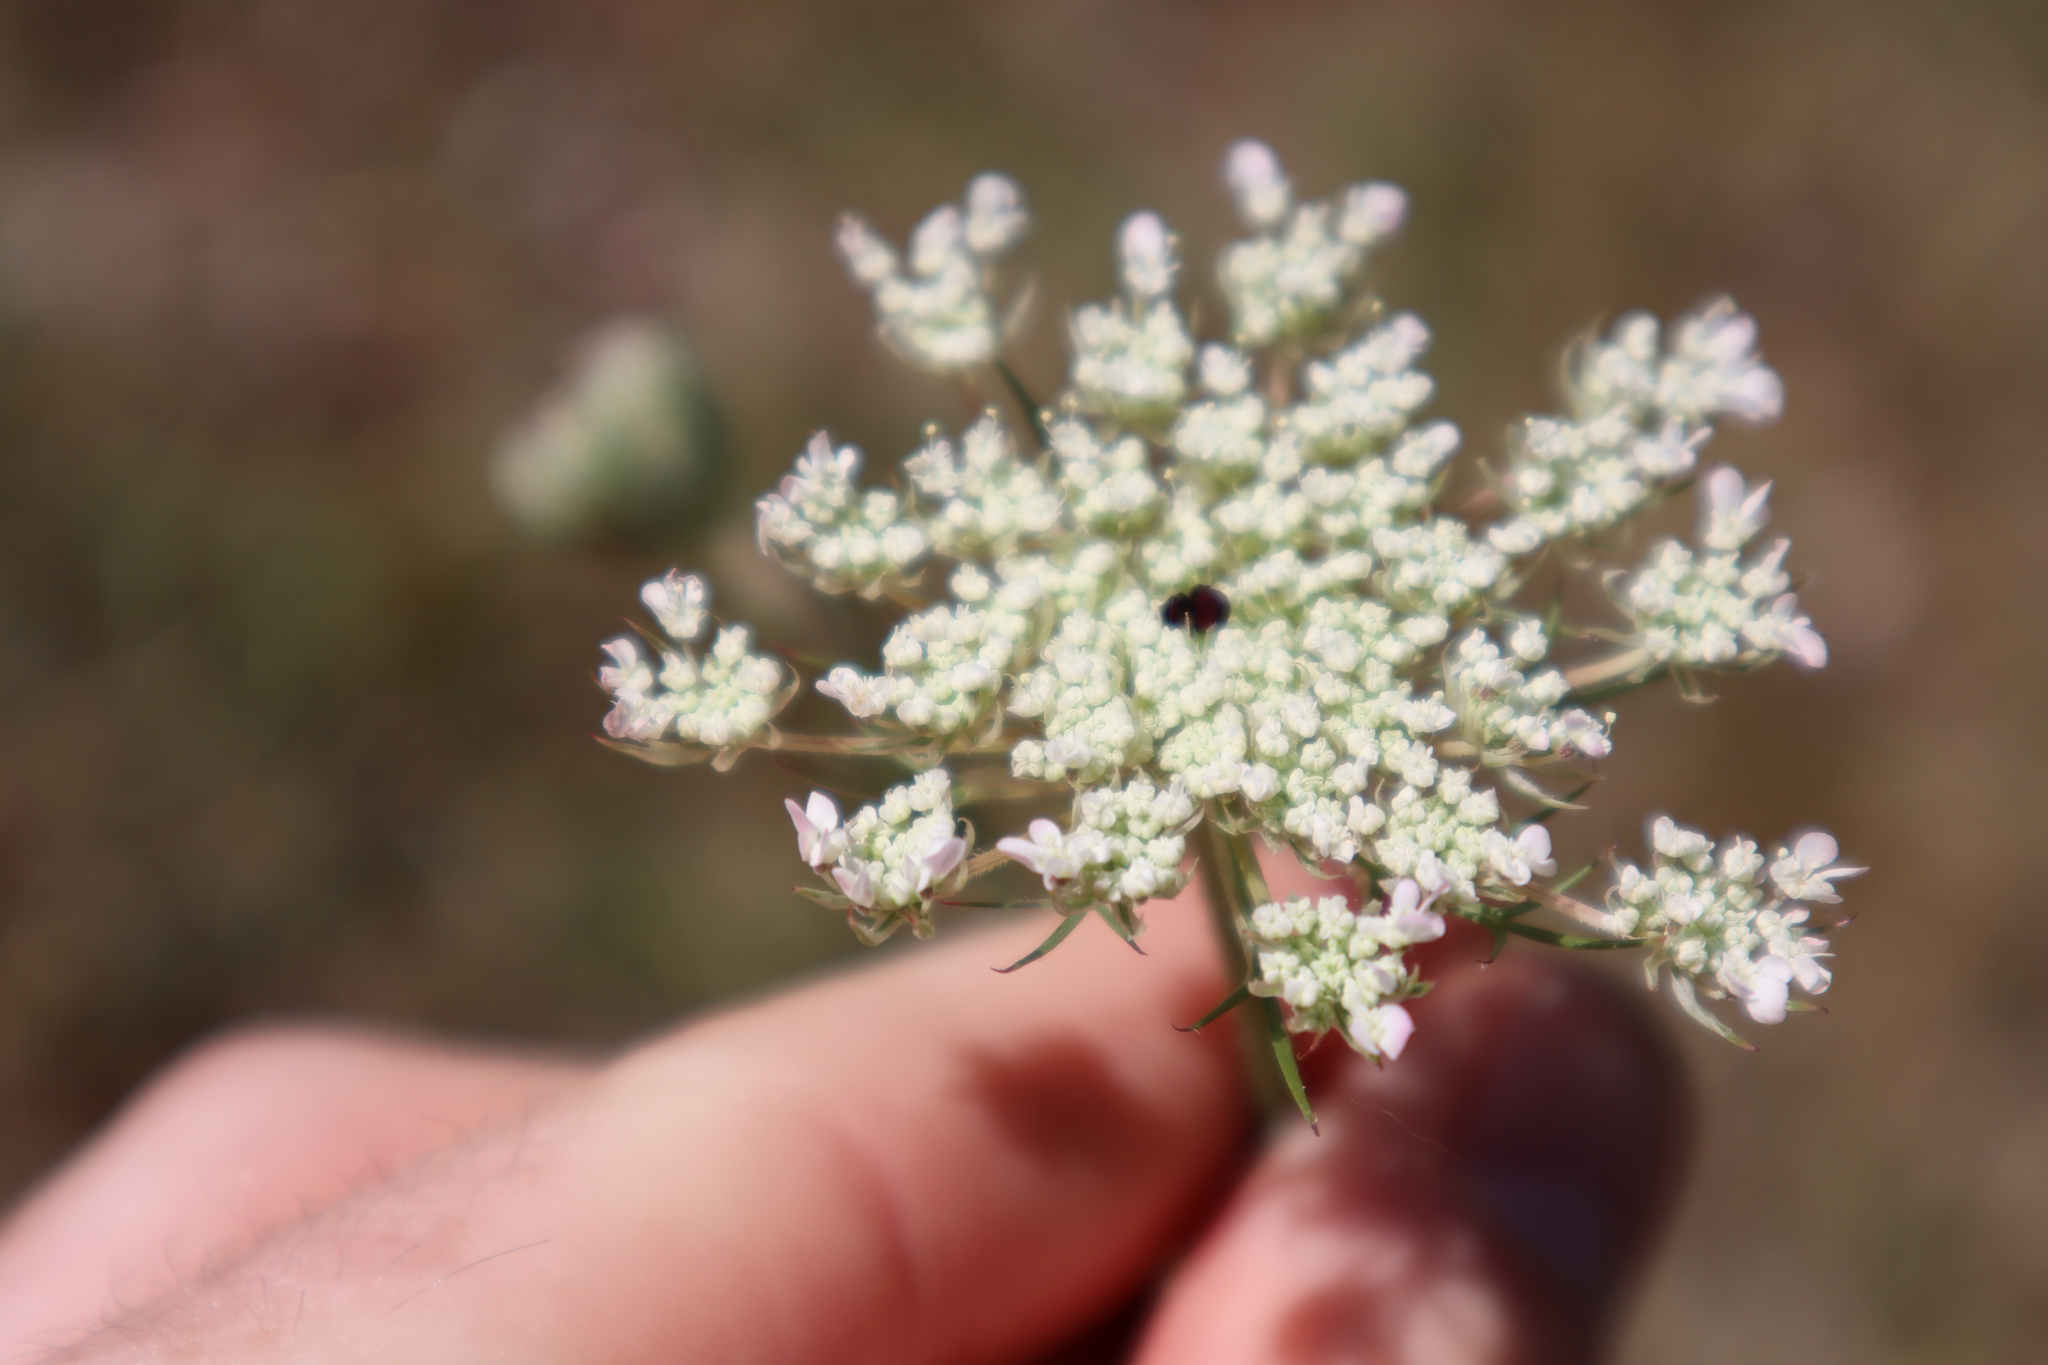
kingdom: Plantae
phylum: Tracheophyta
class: Magnoliopsida
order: Apiales
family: Apiaceae
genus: Daucus
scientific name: Daucus carota
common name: Wild carrot
